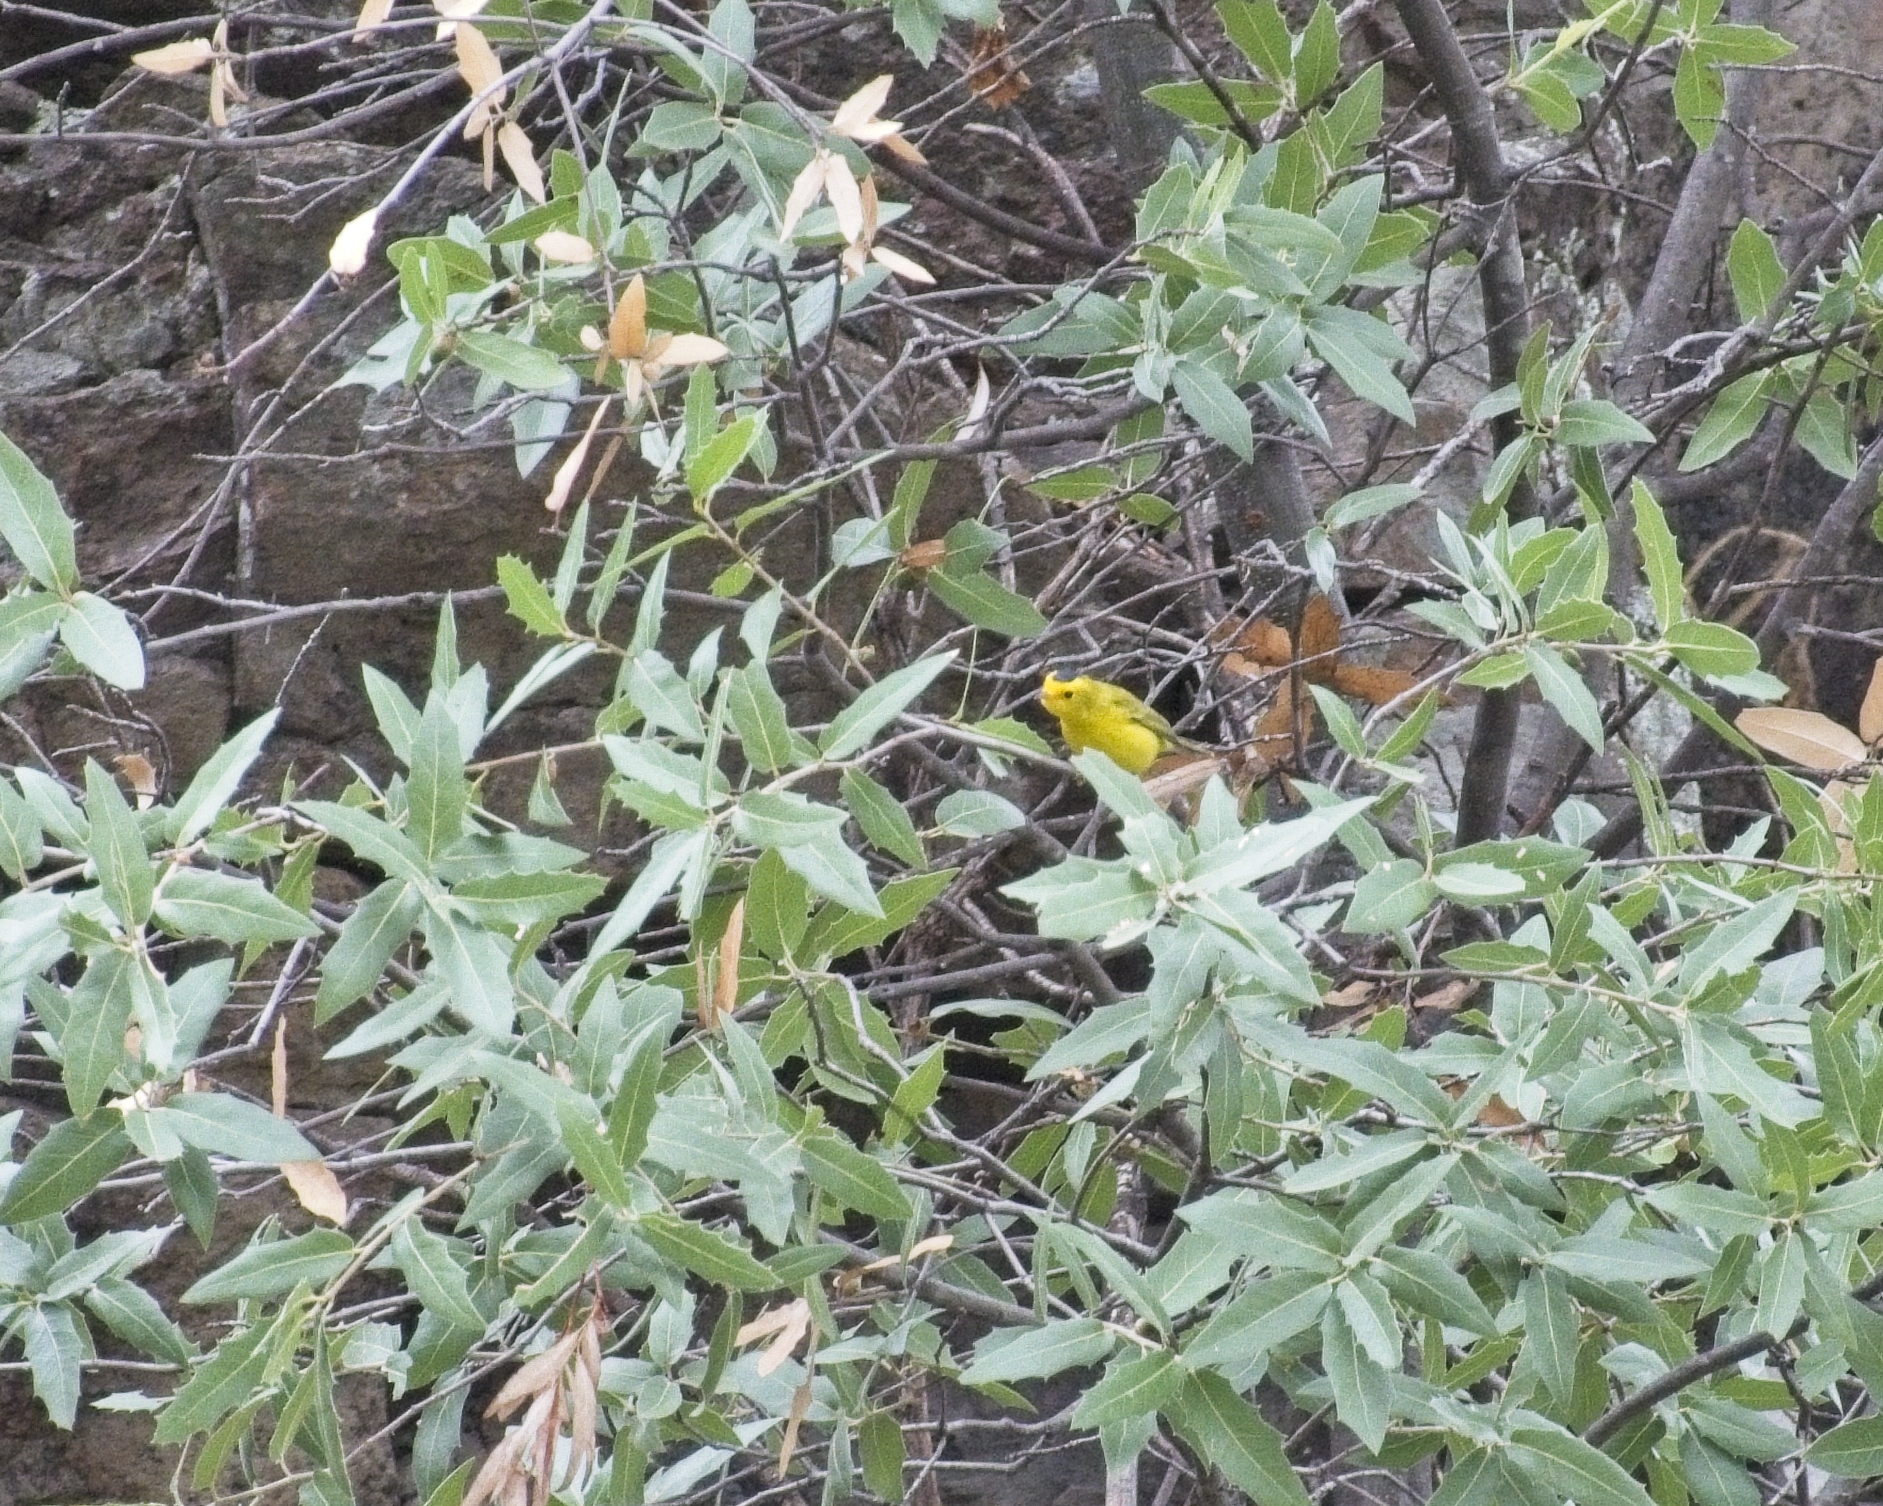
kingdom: Animalia
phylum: Chordata
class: Aves
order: Passeriformes
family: Parulidae
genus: Cardellina
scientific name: Cardellina pusilla
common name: Wilson's warbler
